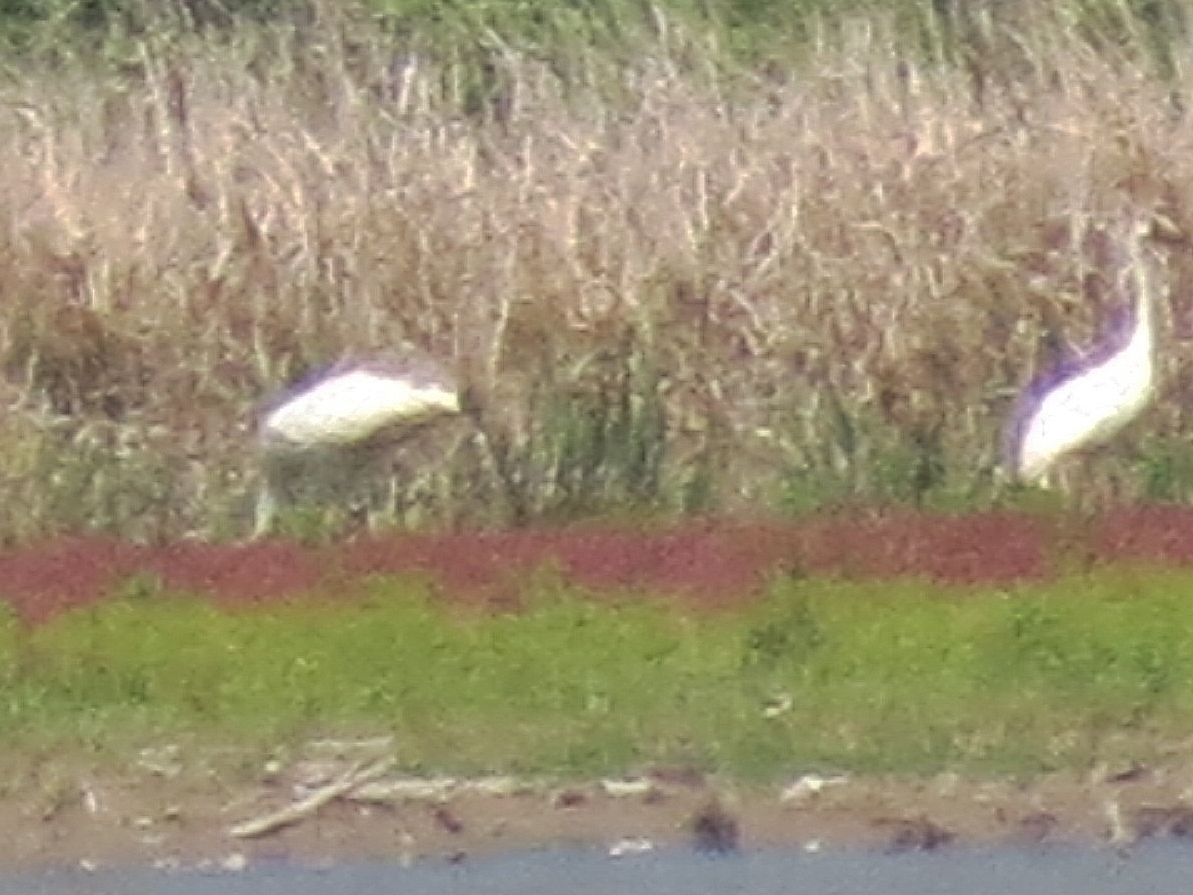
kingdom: Animalia
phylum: Chordata
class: Aves
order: Gruiformes
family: Gruidae
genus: Grus
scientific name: Grus americana
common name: Whooping crane
